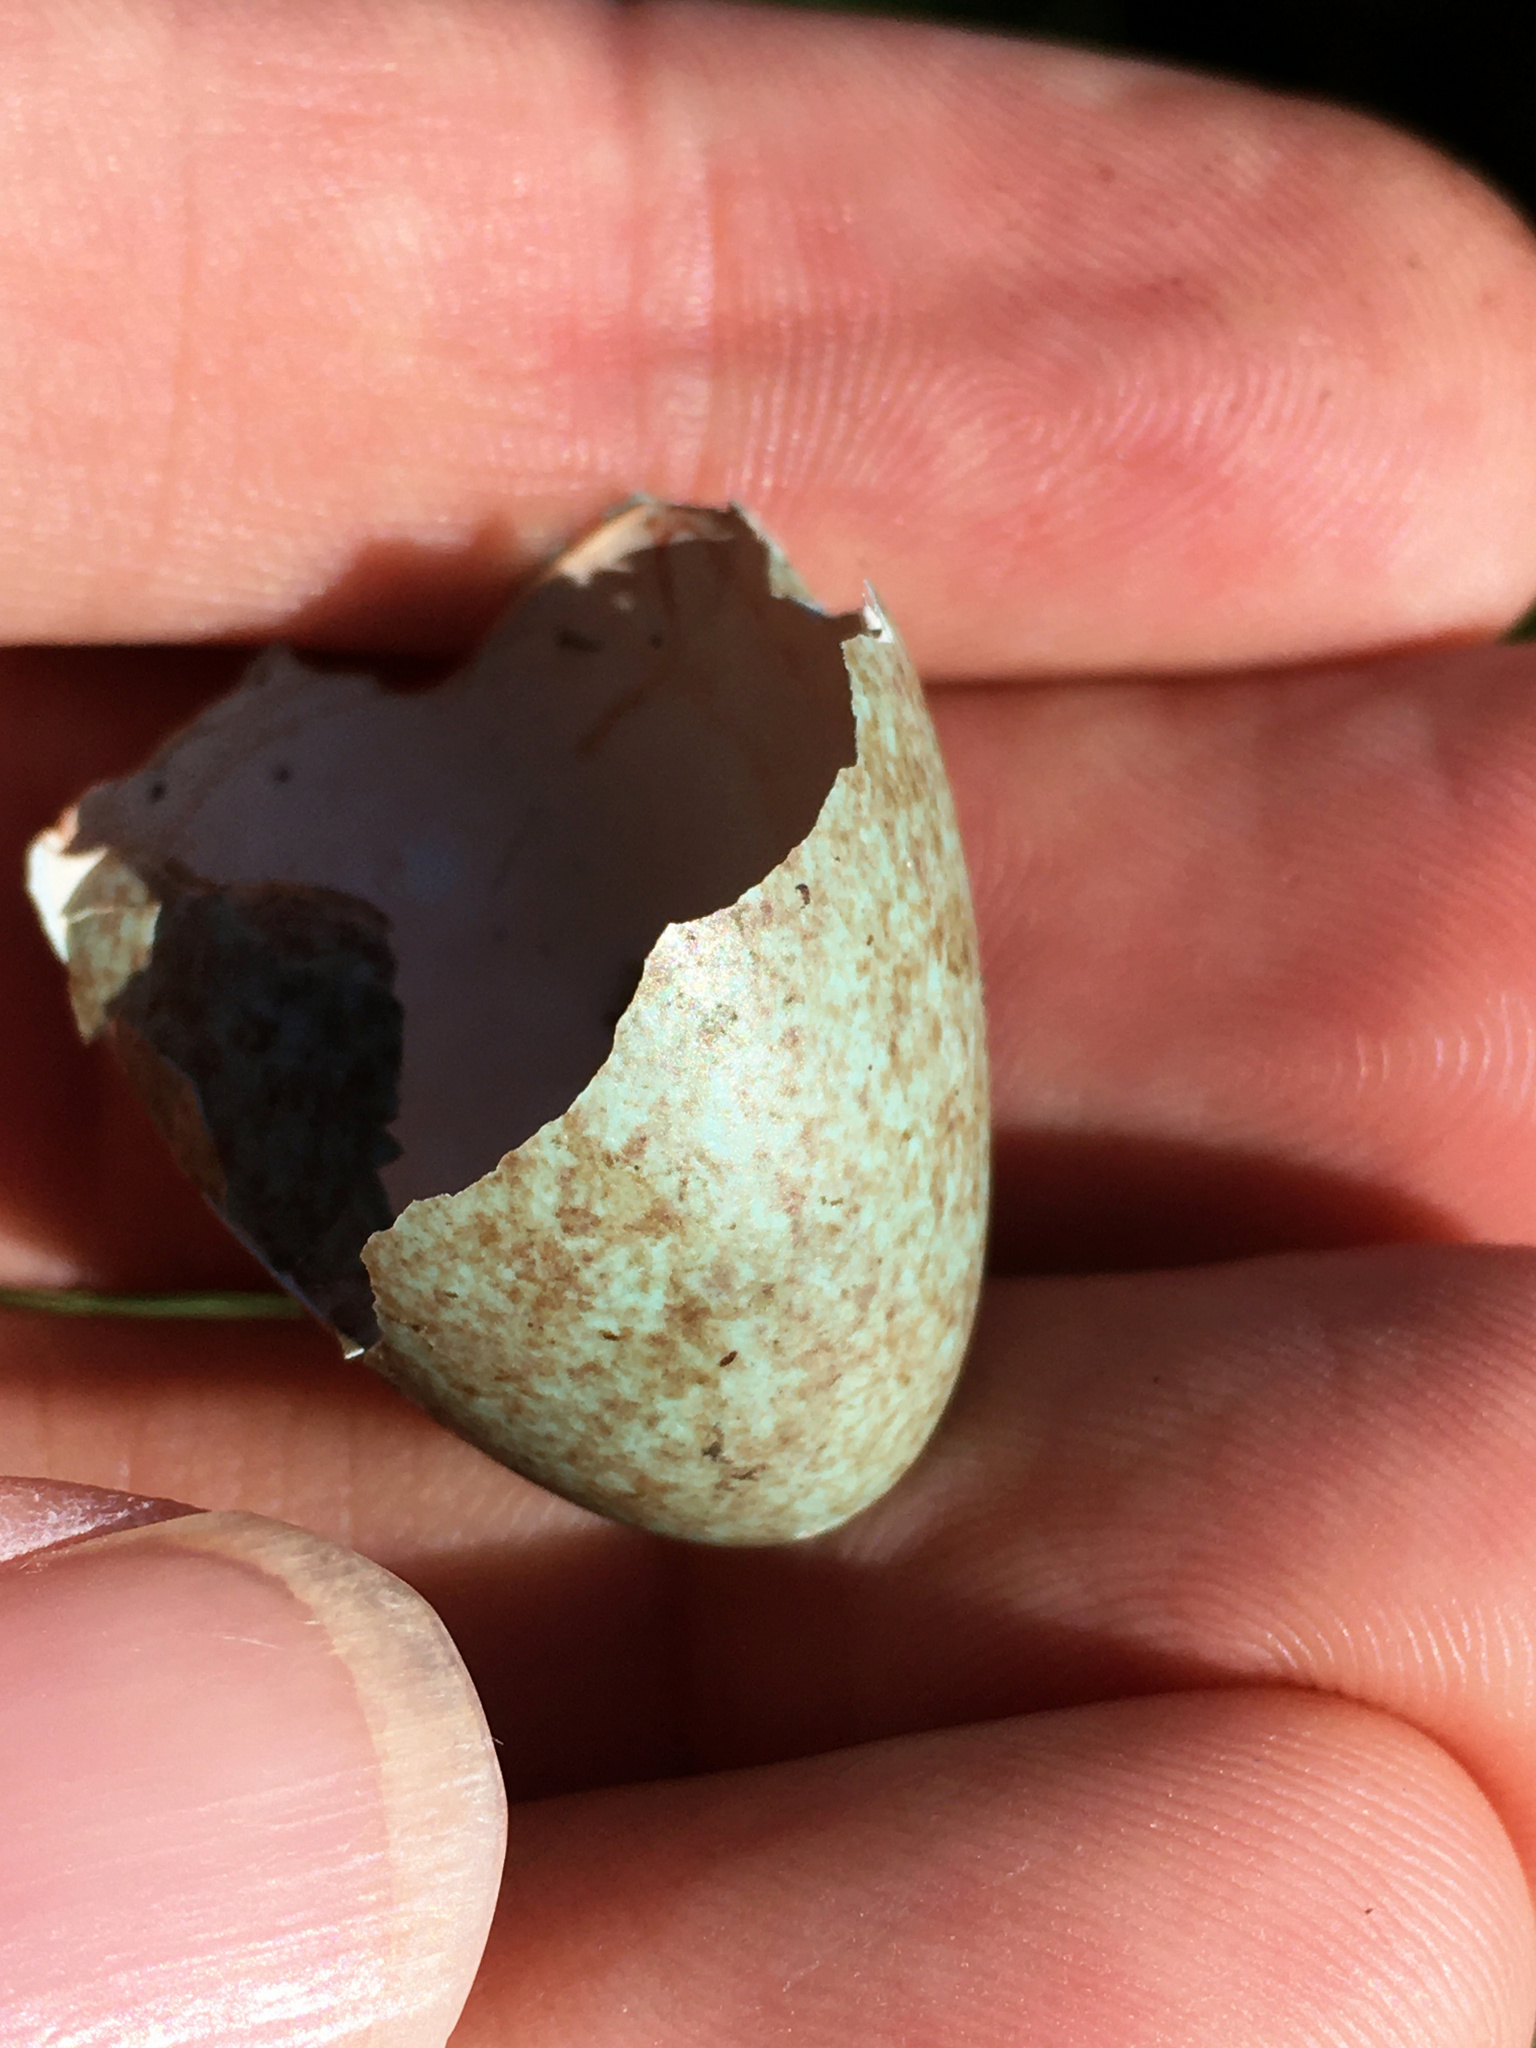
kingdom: Animalia
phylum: Chordata
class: Aves
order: Passeriformes
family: Turdidae
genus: Turdus
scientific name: Turdus merula
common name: Common blackbird
